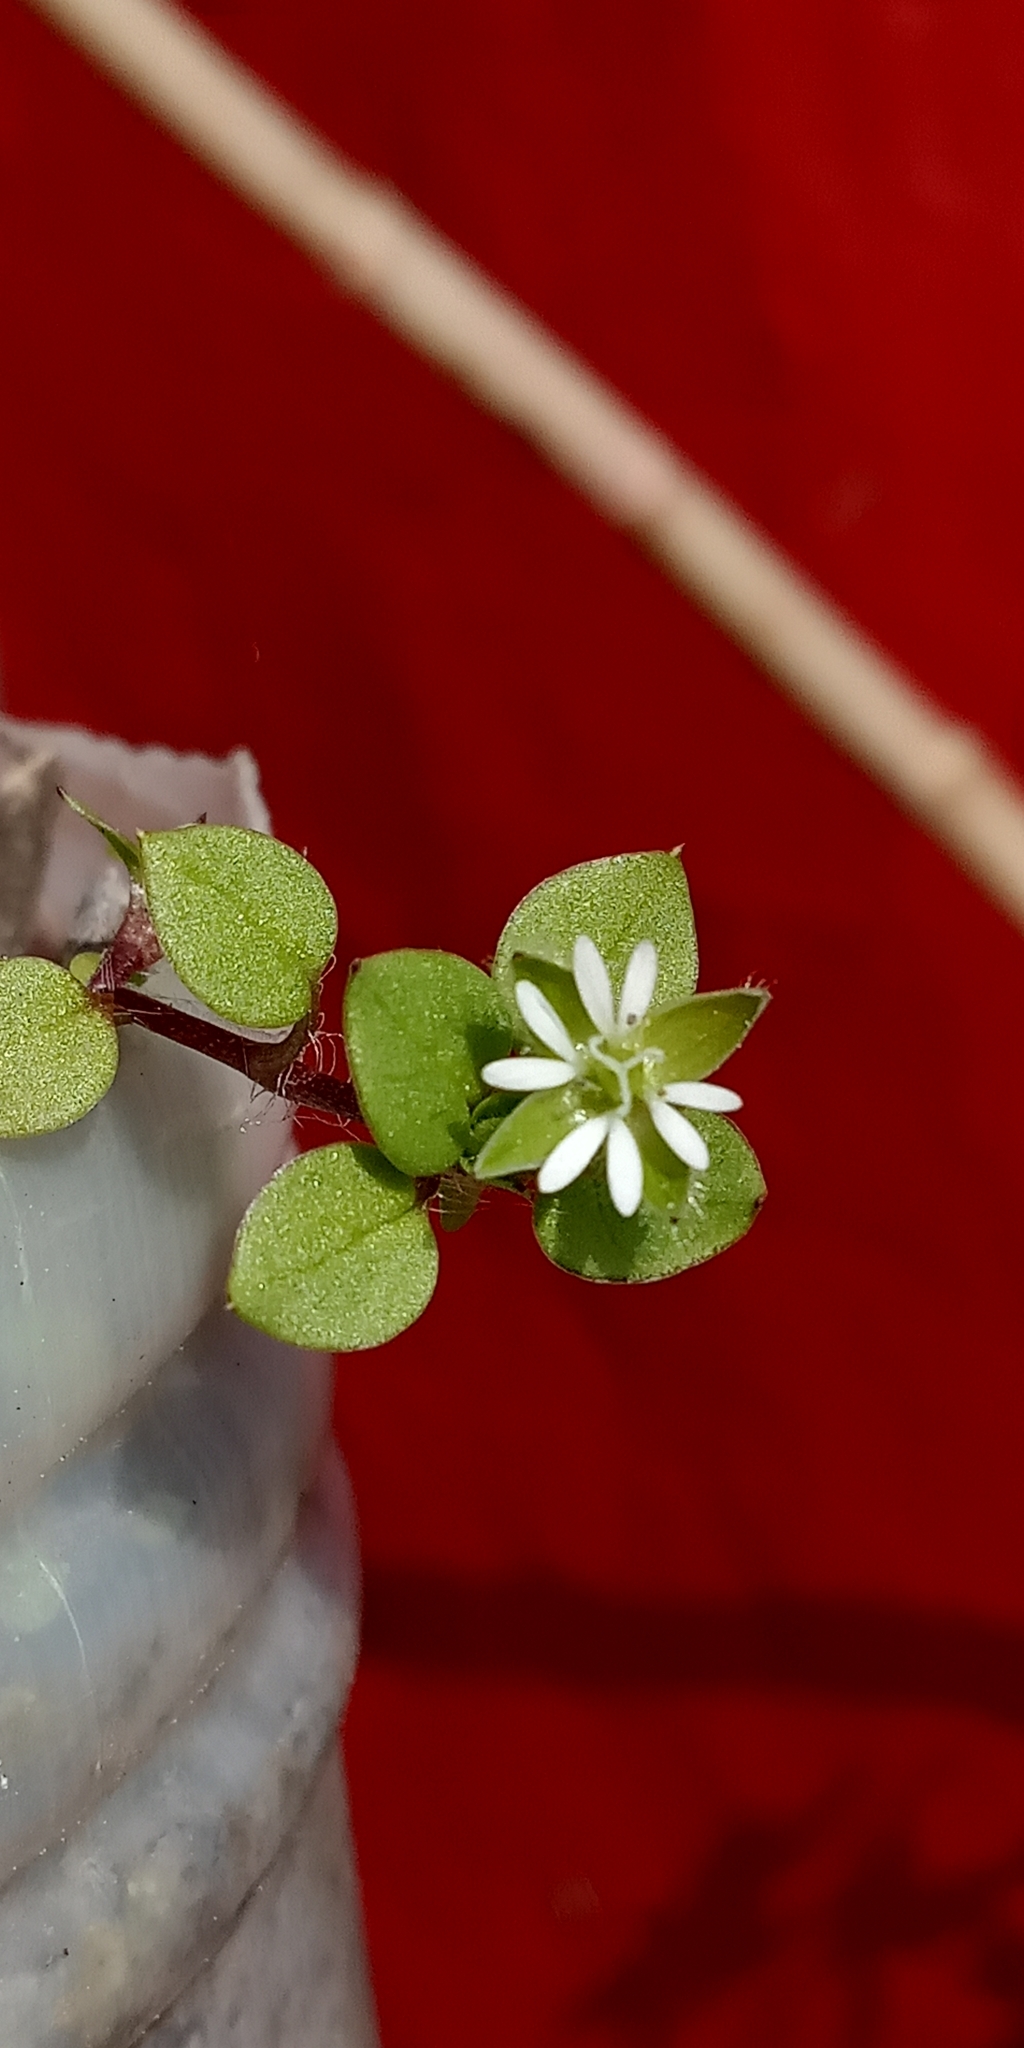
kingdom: Plantae
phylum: Tracheophyta
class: Magnoliopsida
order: Caryophyllales
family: Caryophyllaceae
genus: Stellaria
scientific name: Stellaria media
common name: Common chickweed
